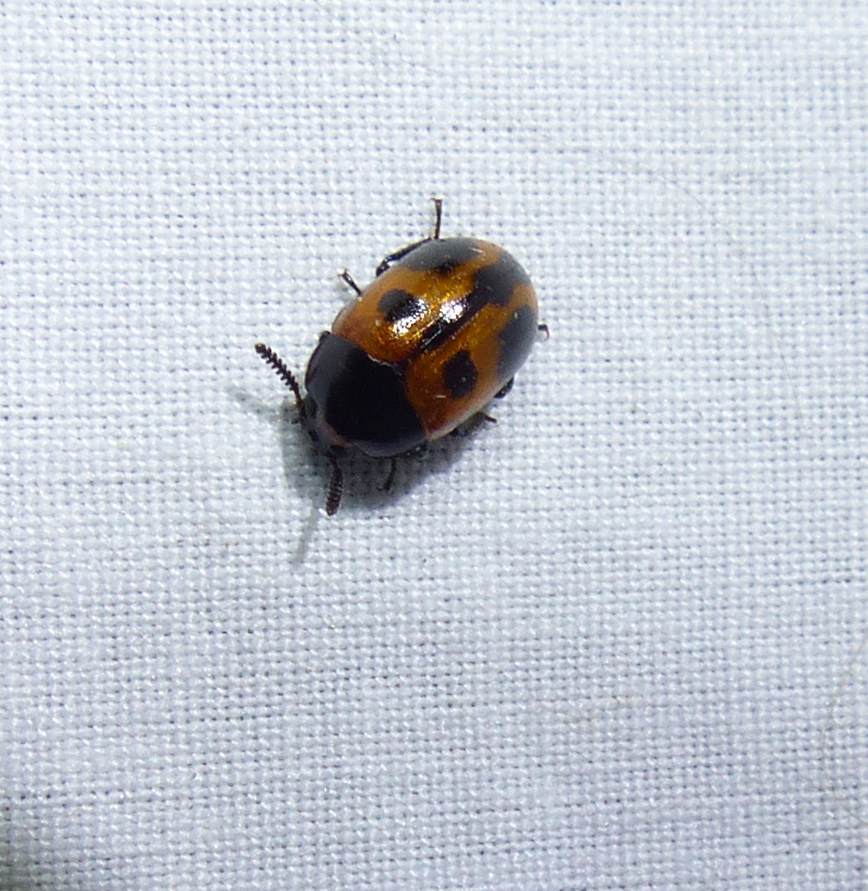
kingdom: Animalia
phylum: Arthropoda
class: Insecta
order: Coleoptera
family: Tenebrionidae
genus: Diaperis
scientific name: Diaperis maculata
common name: Darkling beetle
